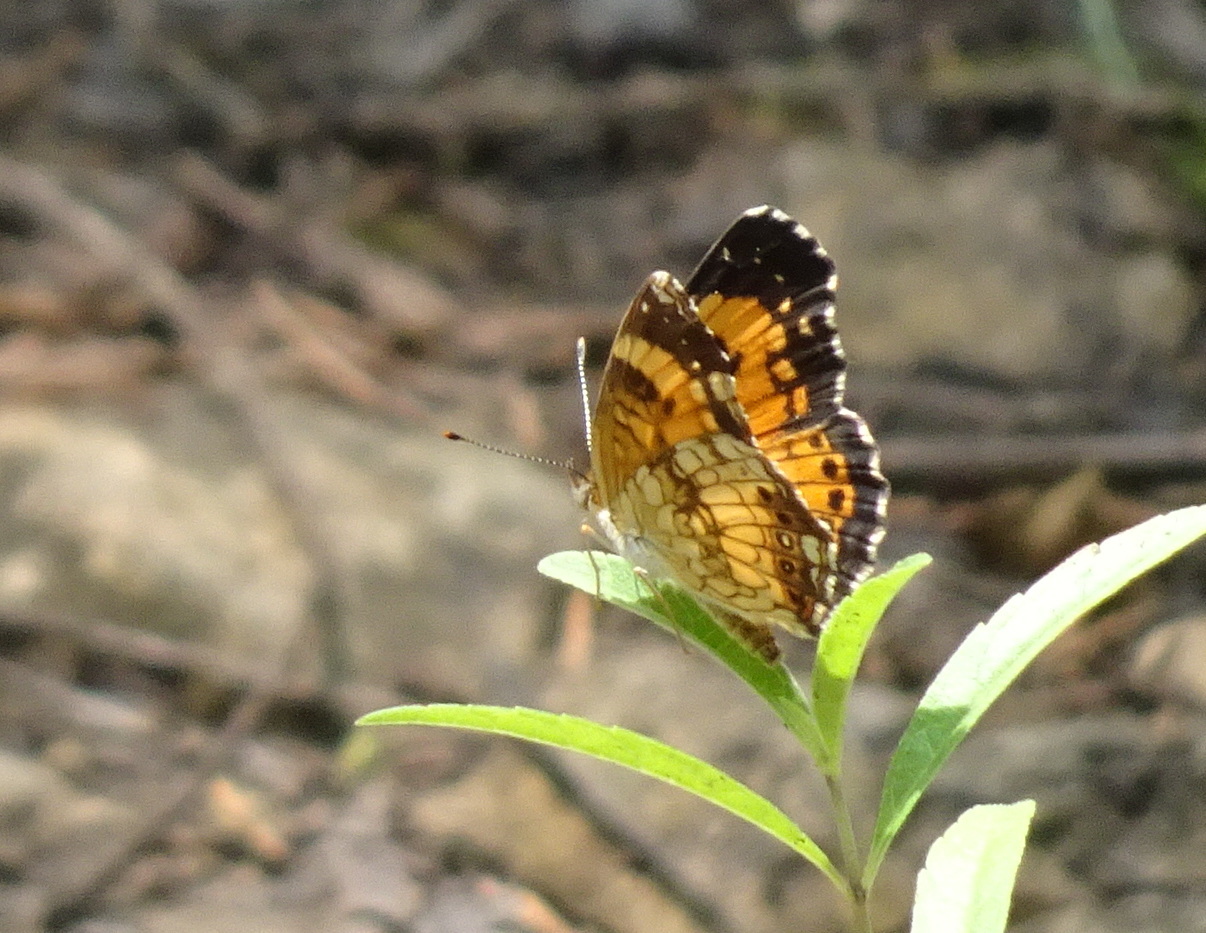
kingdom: Animalia
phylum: Arthropoda
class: Insecta
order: Lepidoptera
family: Nymphalidae
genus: Chlosyne
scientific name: Chlosyne nycteis
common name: Silvery checkerspot
